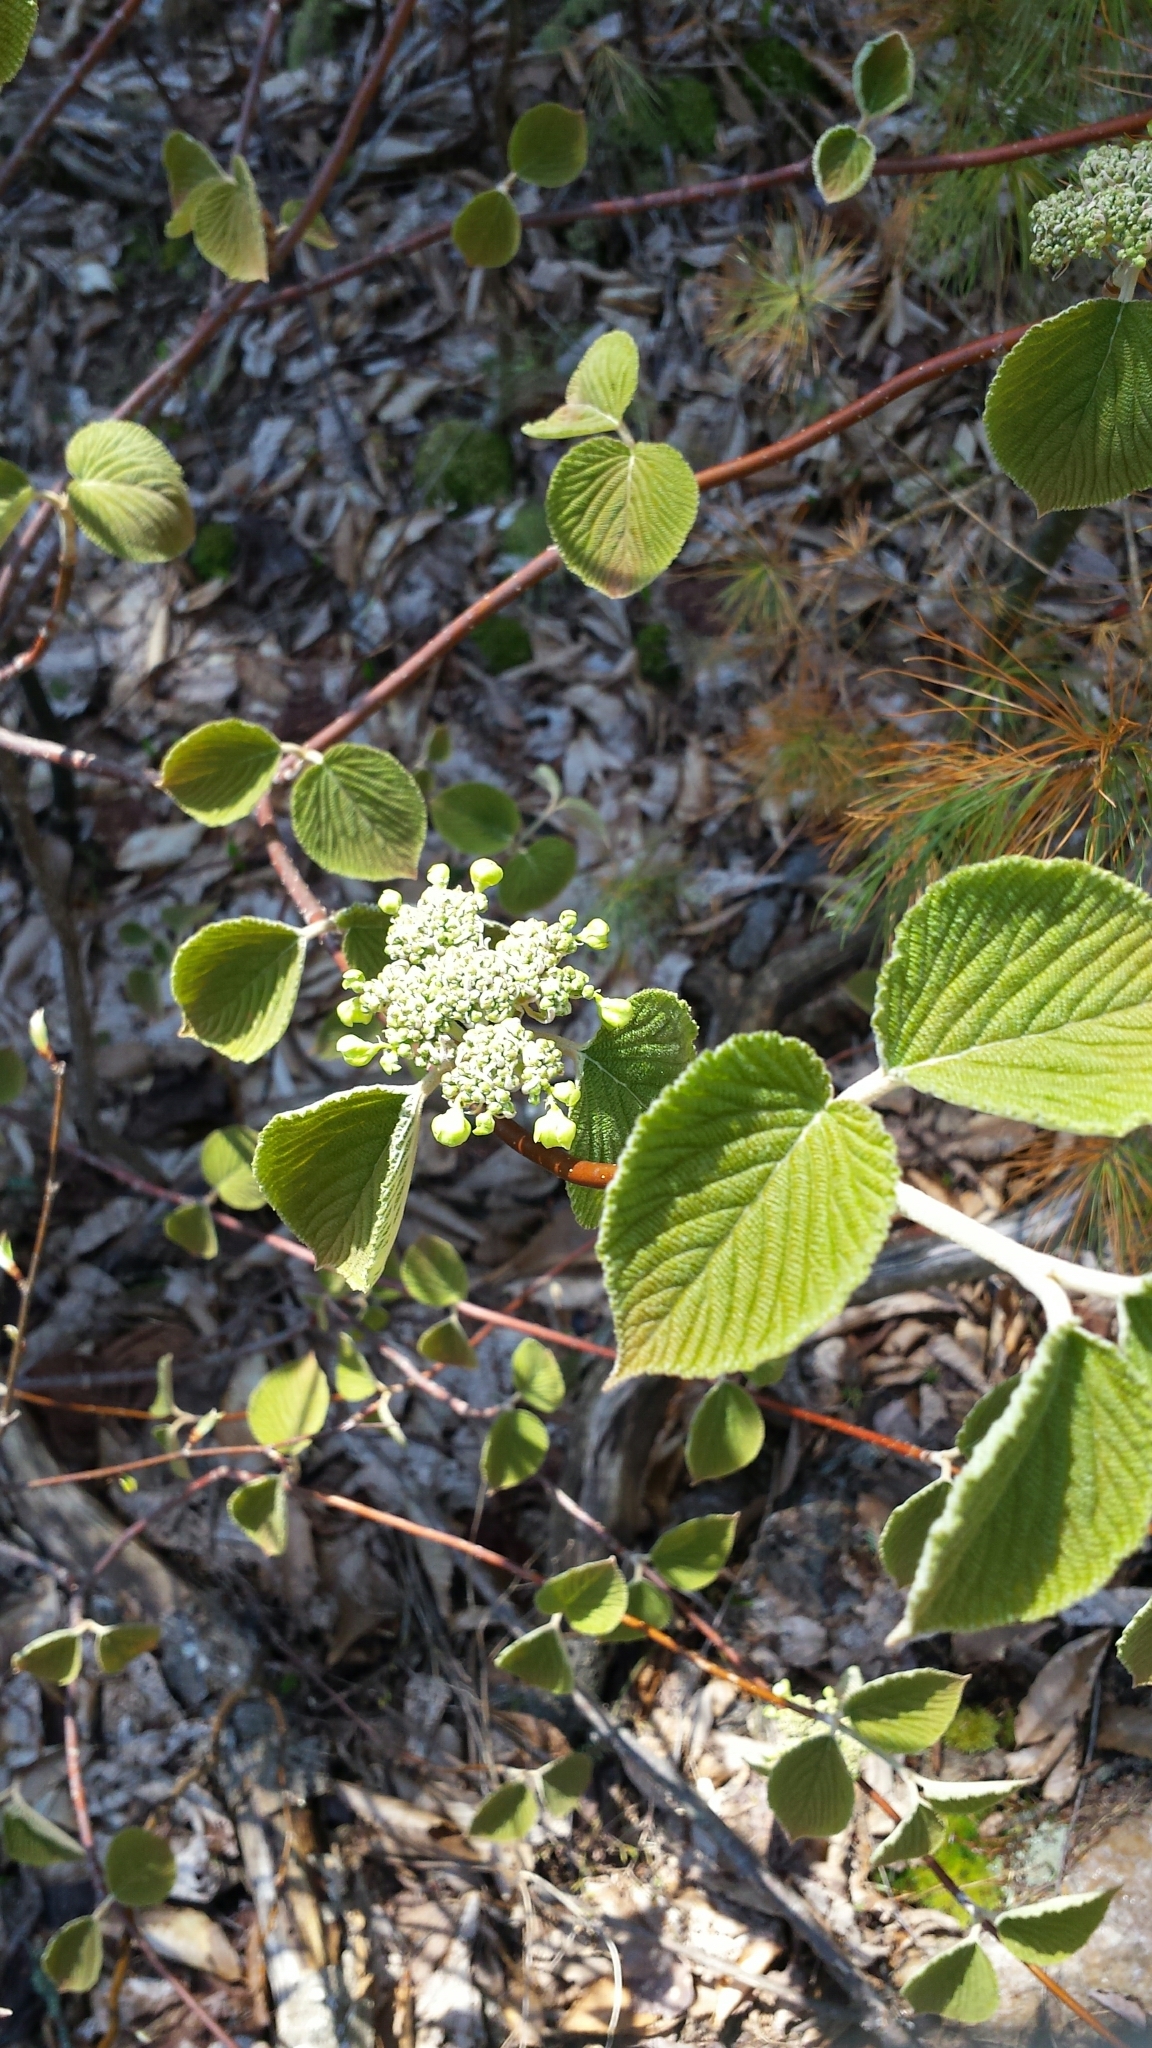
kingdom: Plantae
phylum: Tracheophyta
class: Magnoliopsida
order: Dipsacales
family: Viburnaceae
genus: Viburnum
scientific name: Viburnum lantanoides
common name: Hobblebush
